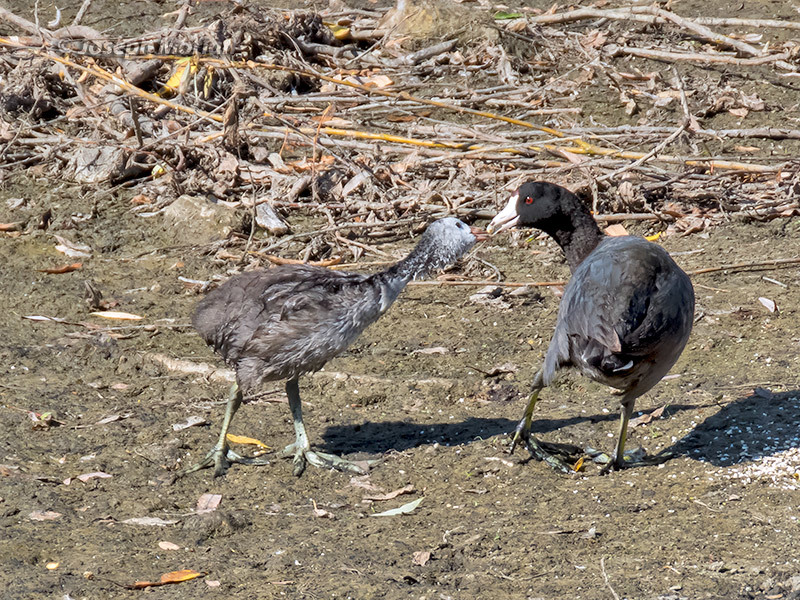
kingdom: Animalia
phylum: Chordata
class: Aves
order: Gruiformes
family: Rallidae
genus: Fulica
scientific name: Fulica americana
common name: American coot
